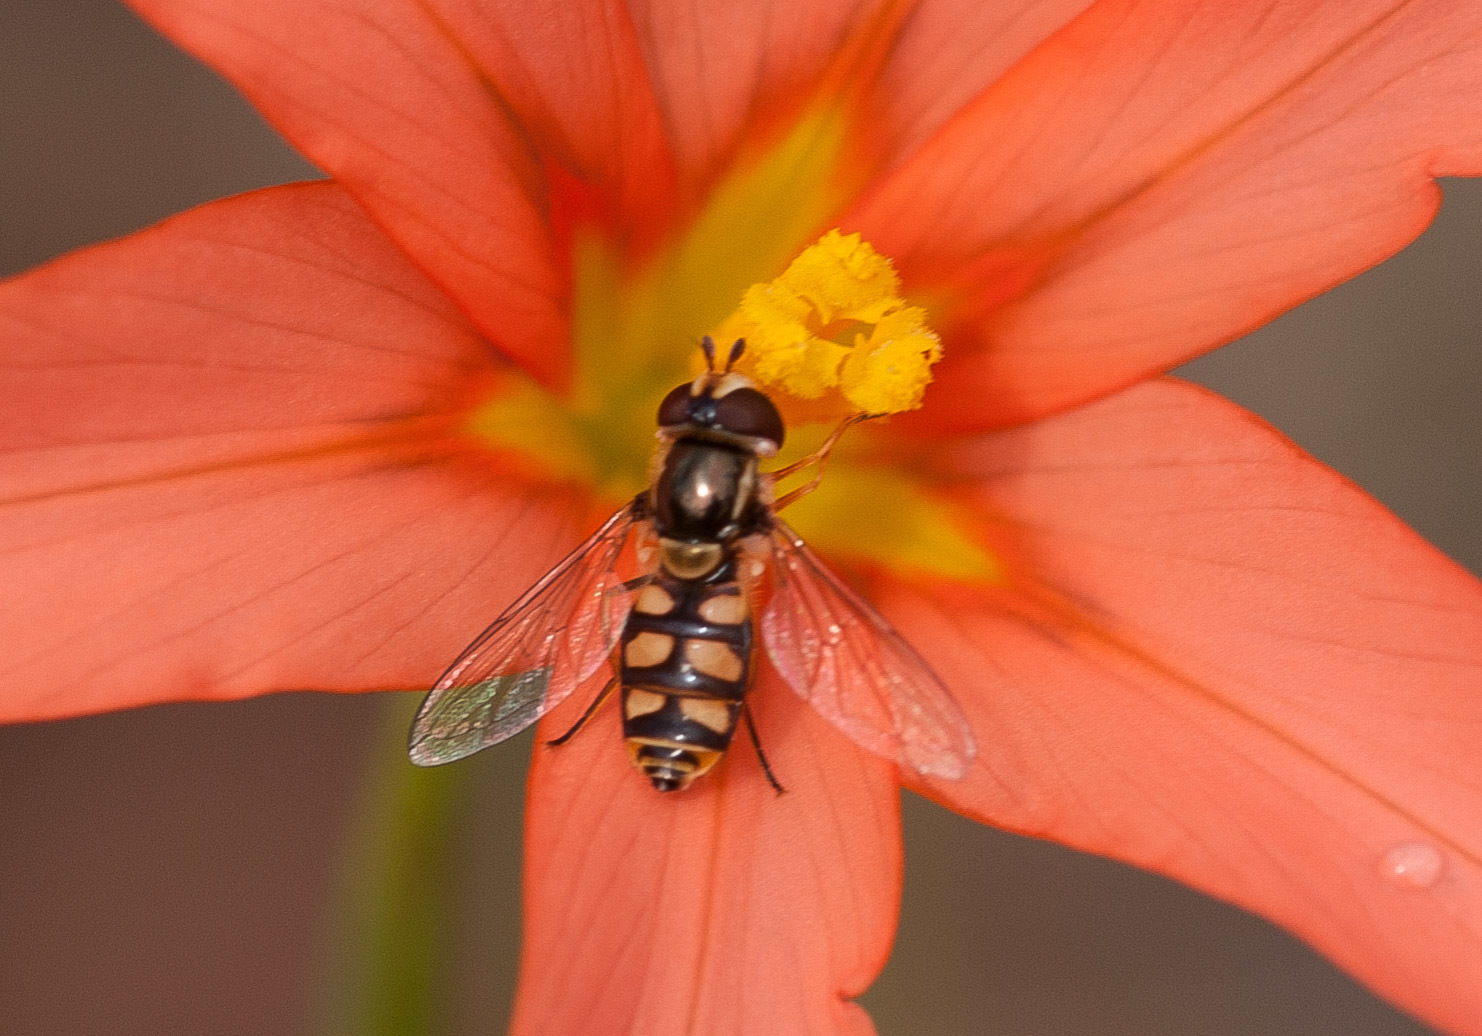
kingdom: Animalia
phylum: Arthropoda
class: Insecta
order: Diptera
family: Syrphidae
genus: Simosyrphus
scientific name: Simosyrphus grandicornis
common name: Hoverfly
